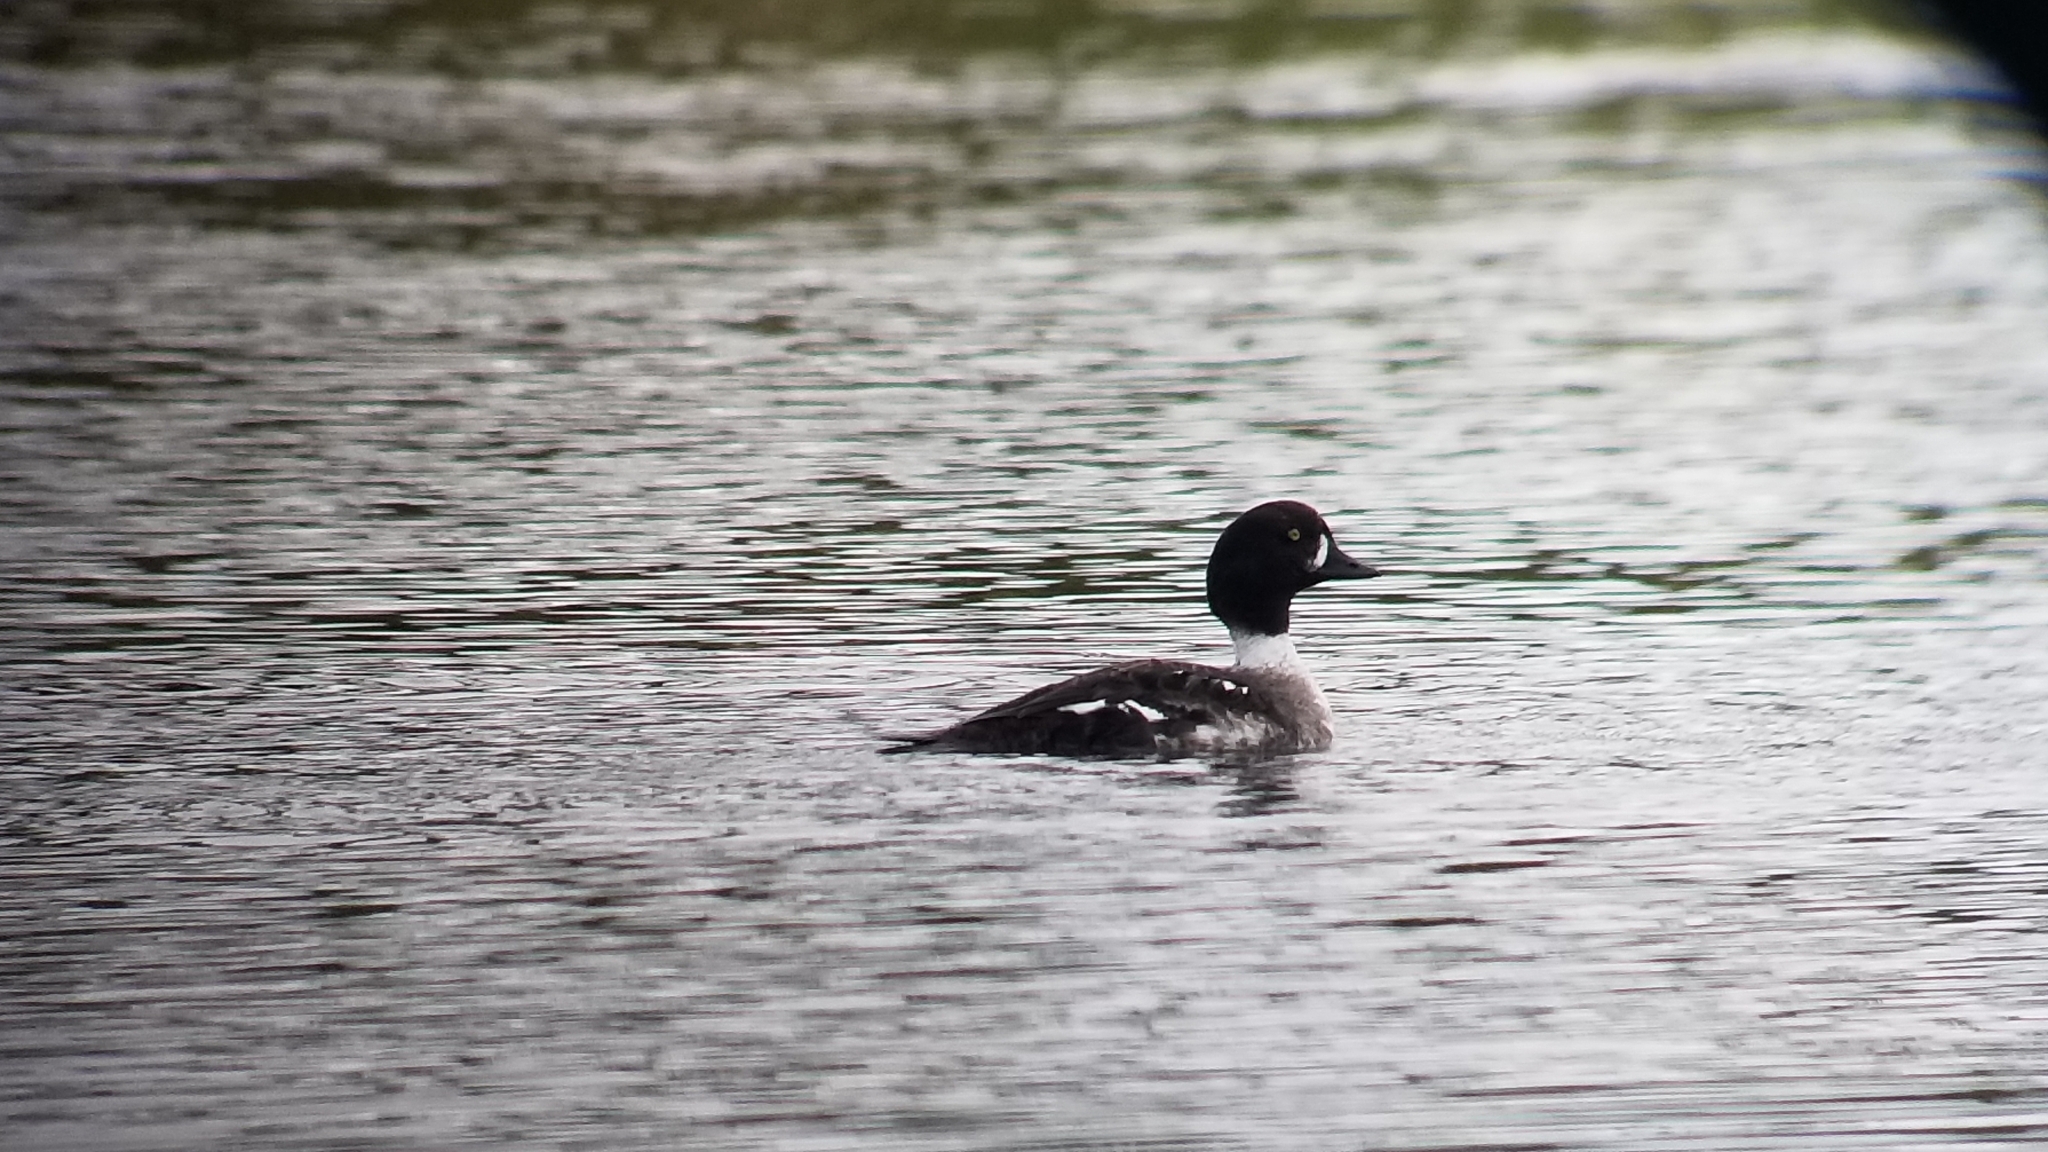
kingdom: Animalia
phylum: Chordata
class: Aves
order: Anseriformes
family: Anatidae
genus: Bucephala
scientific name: Bucephala islandica
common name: Barrow's goldeneye
